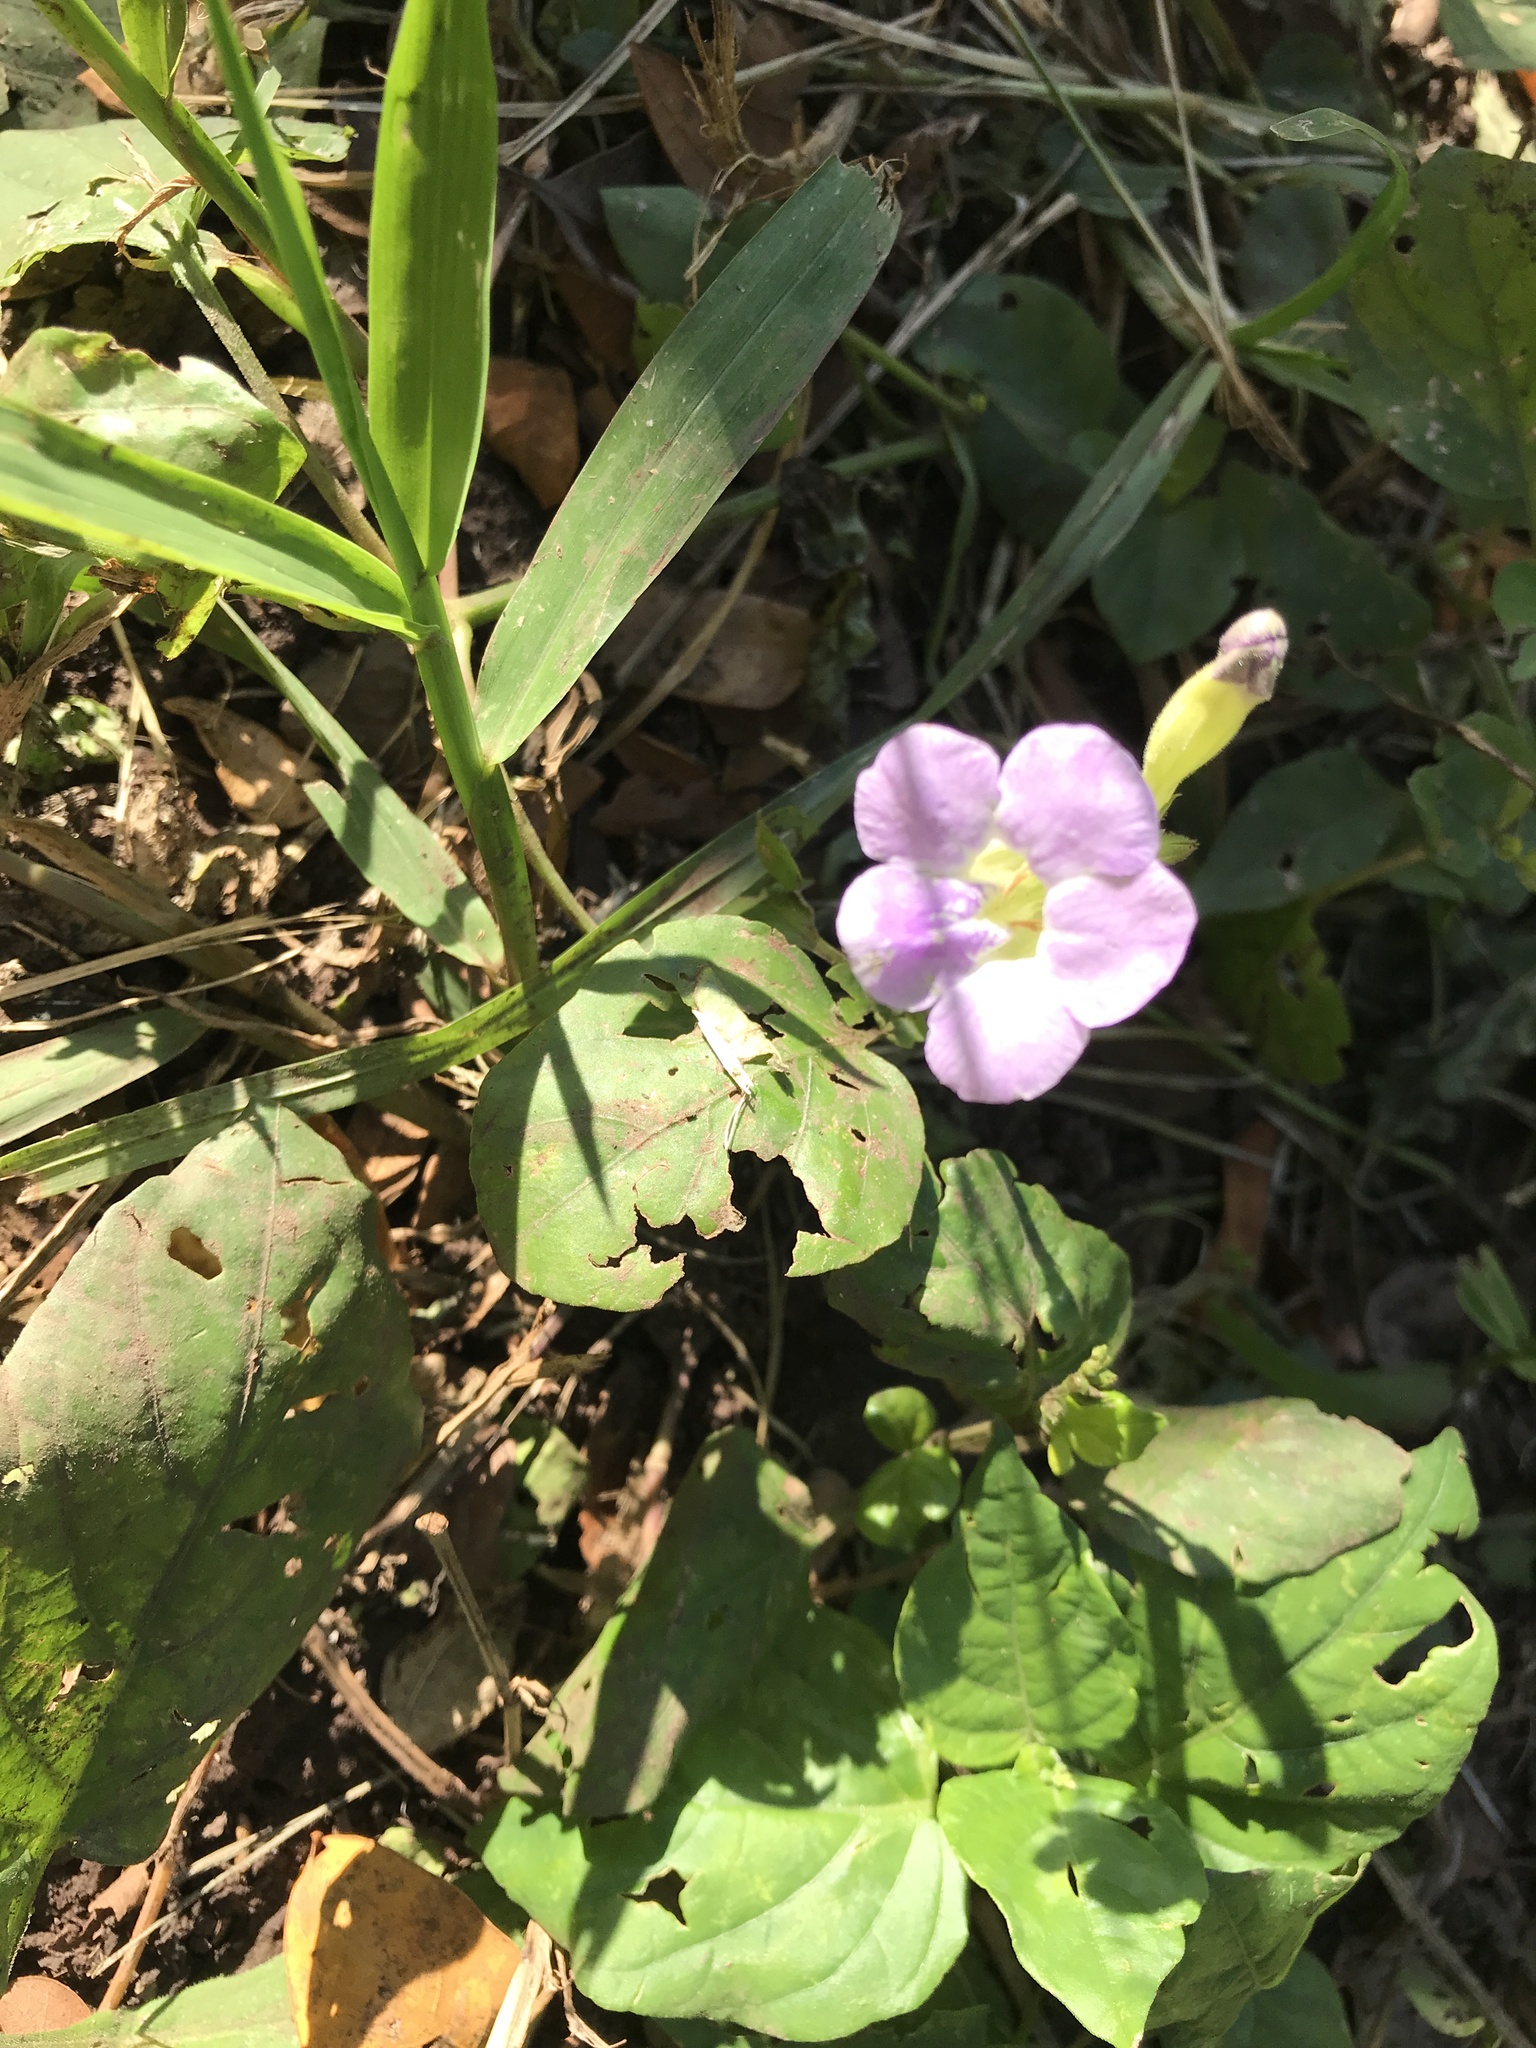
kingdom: Plantae
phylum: Tracheophyta
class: Magnoliopsida
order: Lamiales
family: Acanthaceae
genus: Asystasia
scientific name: Asystasia gangetica
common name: Chinese violet
